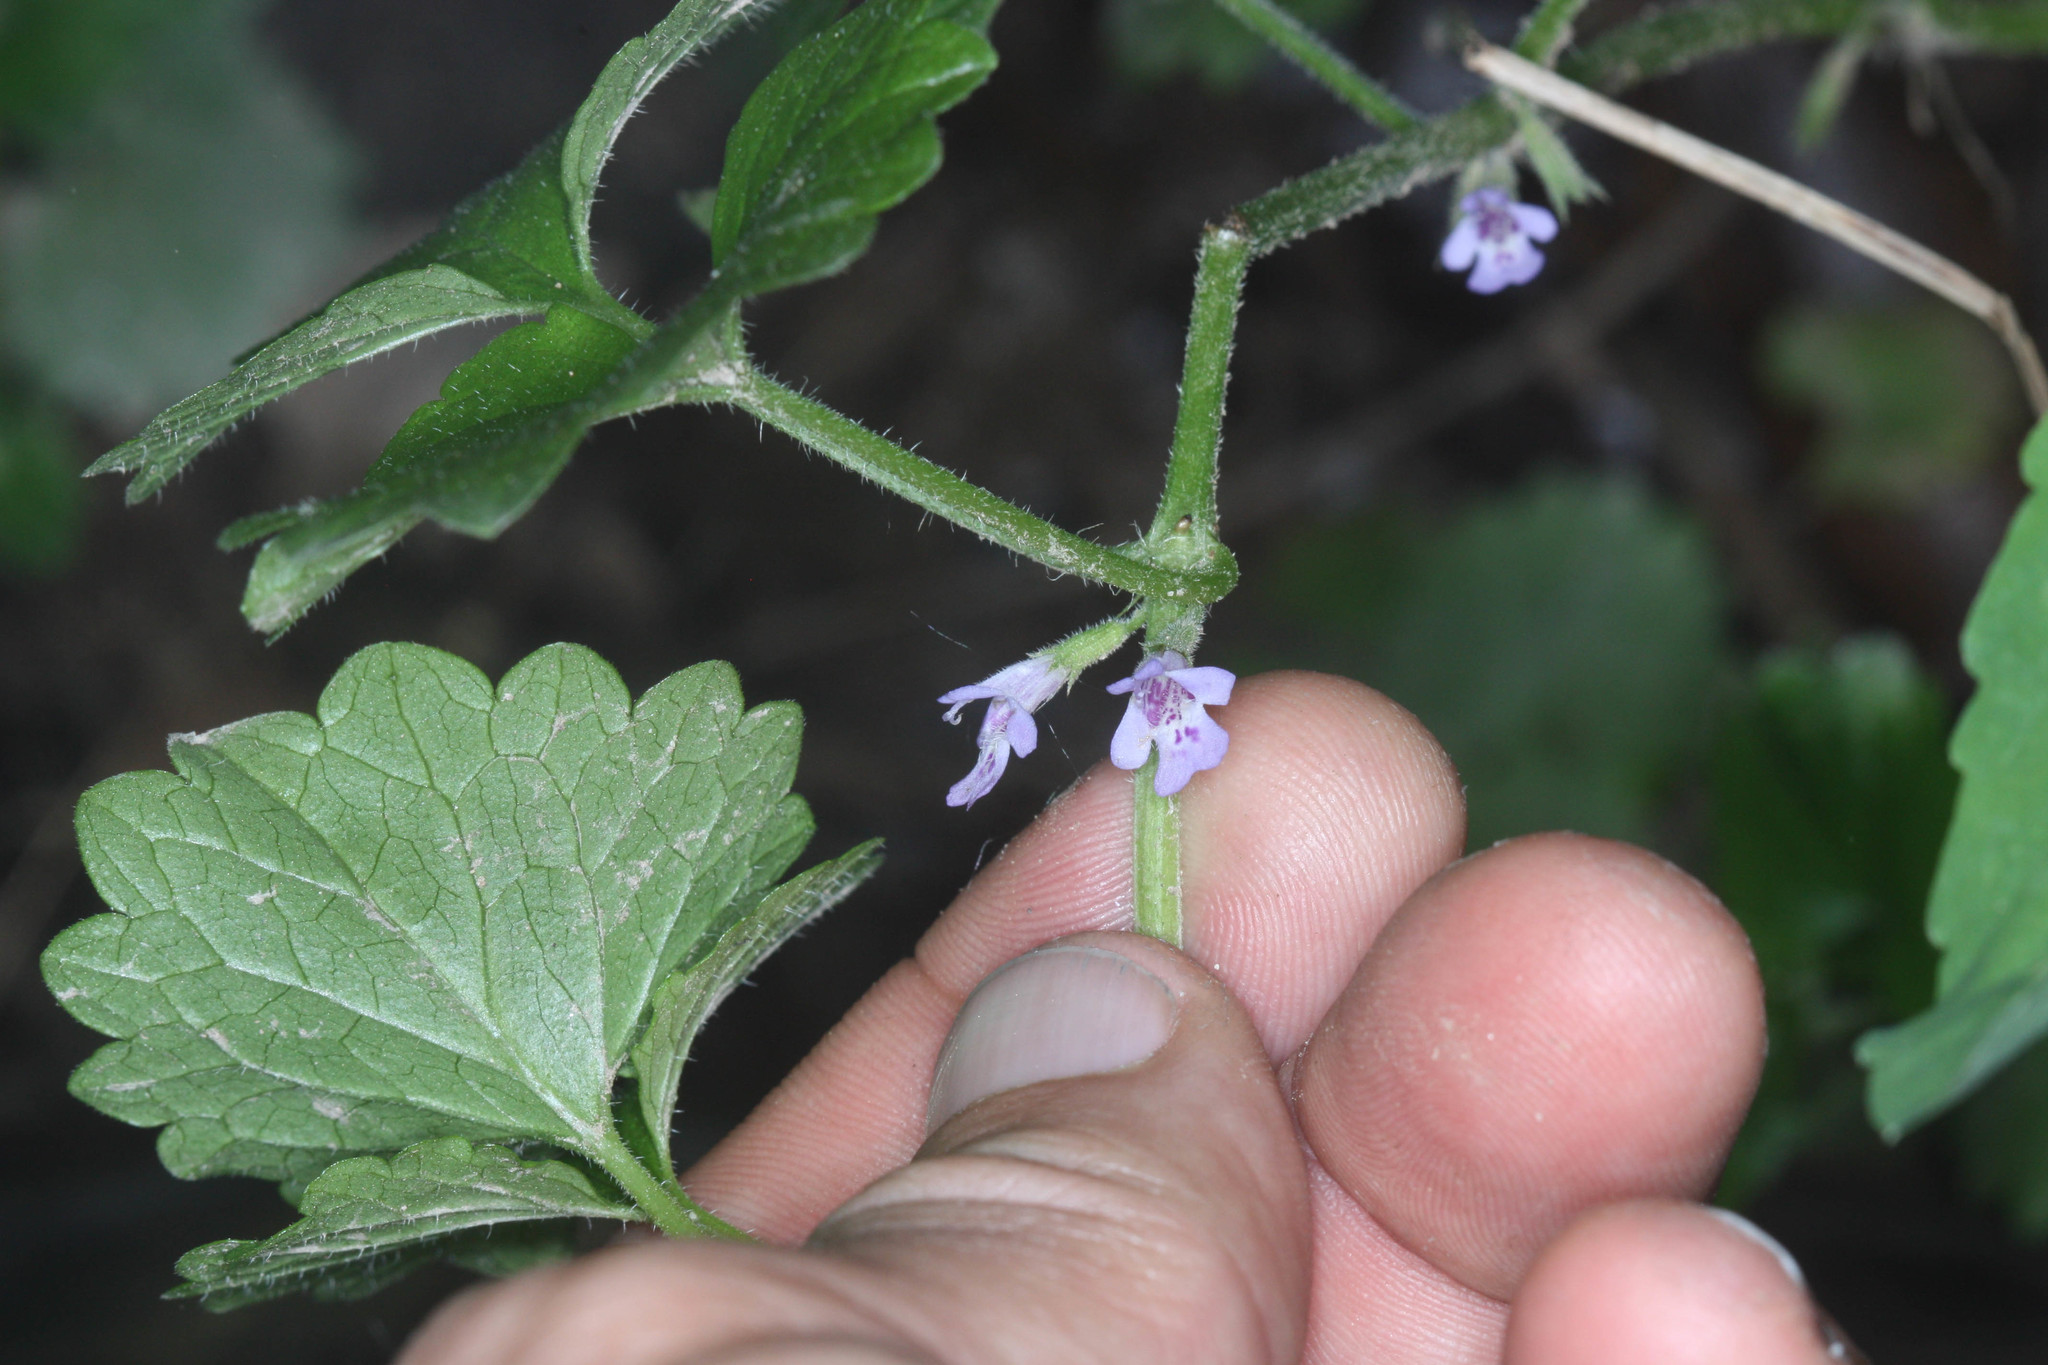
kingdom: Plantae
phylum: Tracheophyta
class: Magnoliopsida
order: Lamiales
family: Lamiaceae
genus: Glechoma
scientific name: Glechoma hederacea
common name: Ground ivy
